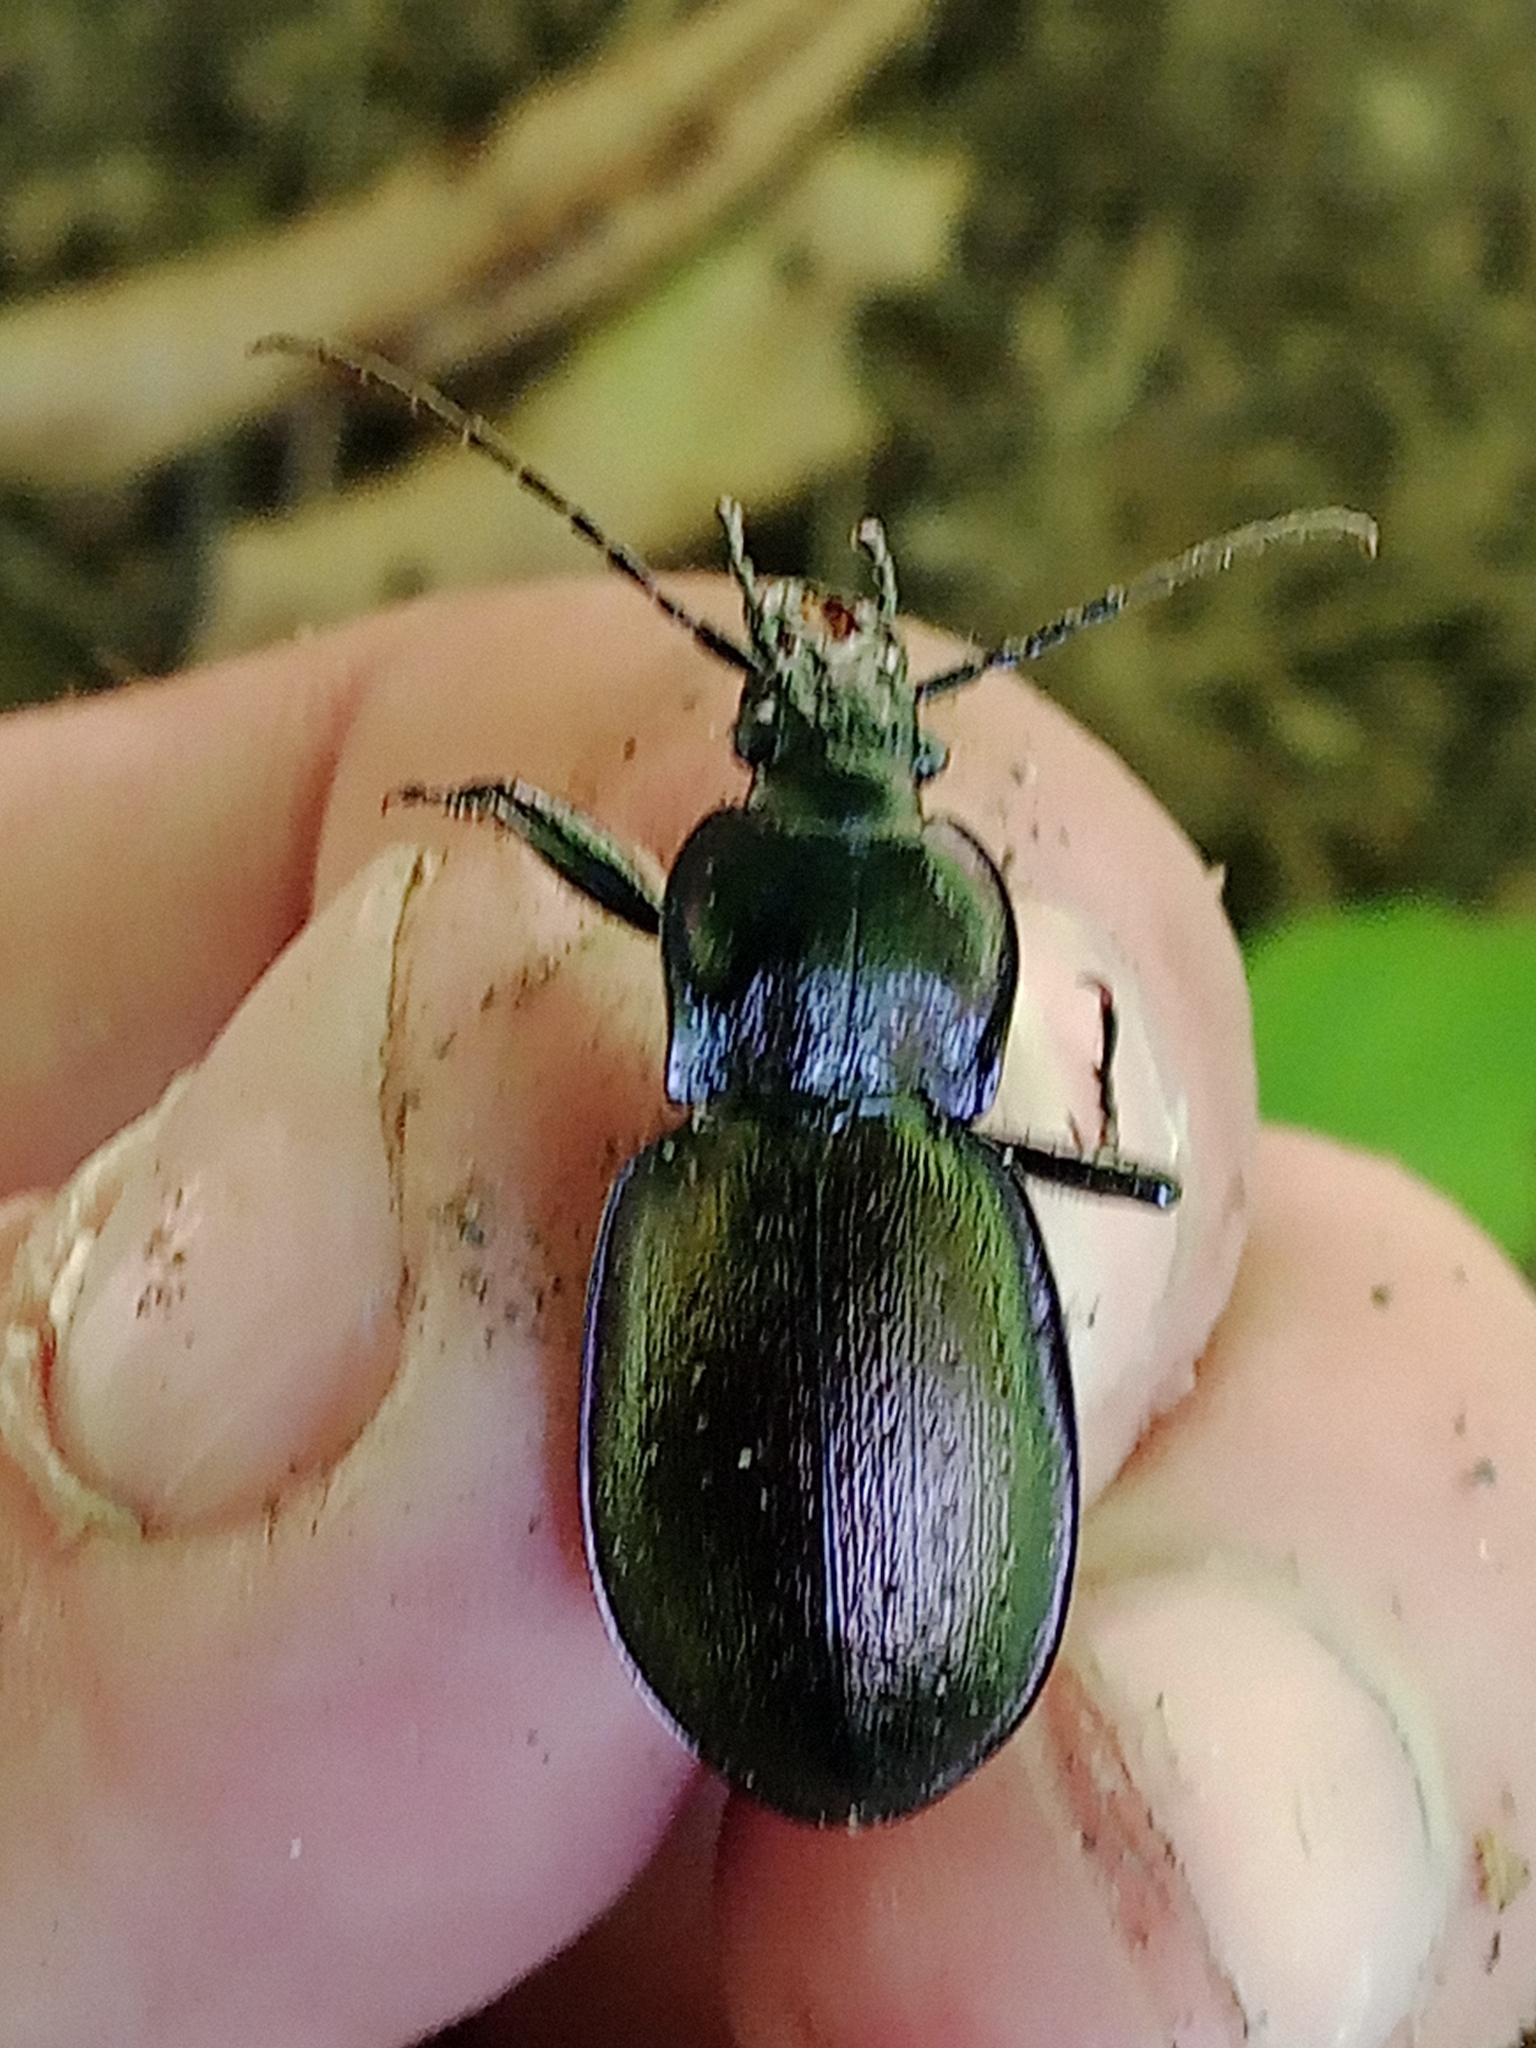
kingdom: Animalia
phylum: Arthropoda
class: Insecta
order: Coleoptera
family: Carabidae
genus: Carabus
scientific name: Carabus nemoralis
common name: European ground beetle
